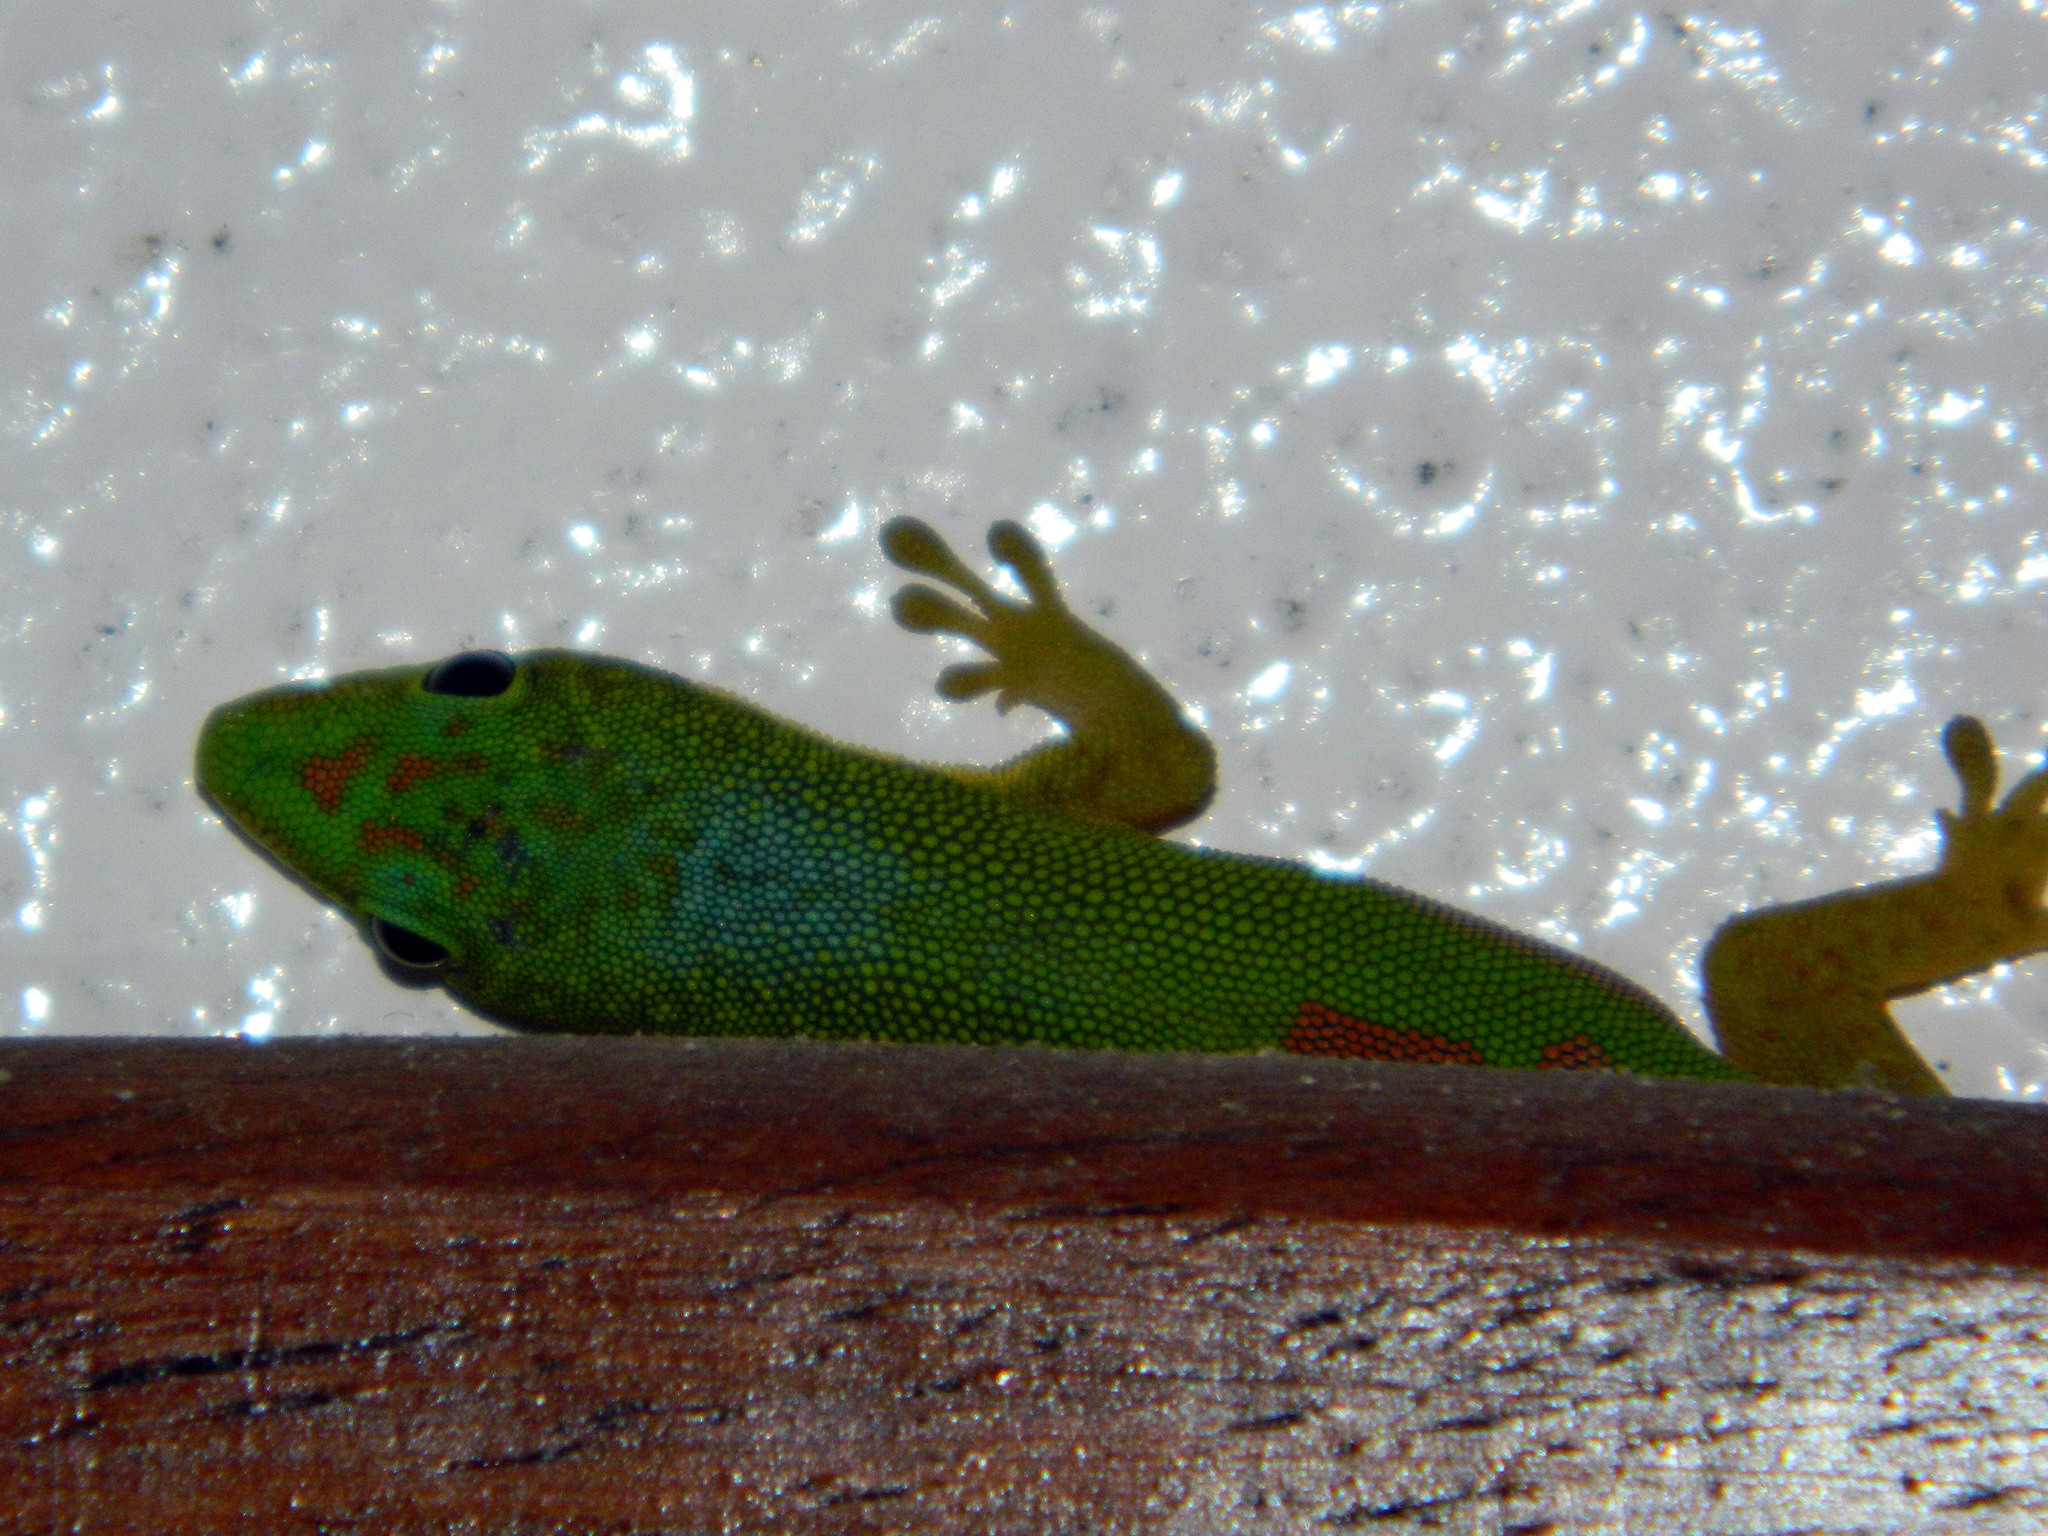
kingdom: Animalia
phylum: Chordata
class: Squamata
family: Gekkonidae
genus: Phelsuma
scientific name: Phelsuma lineata
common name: Lined day gecko
